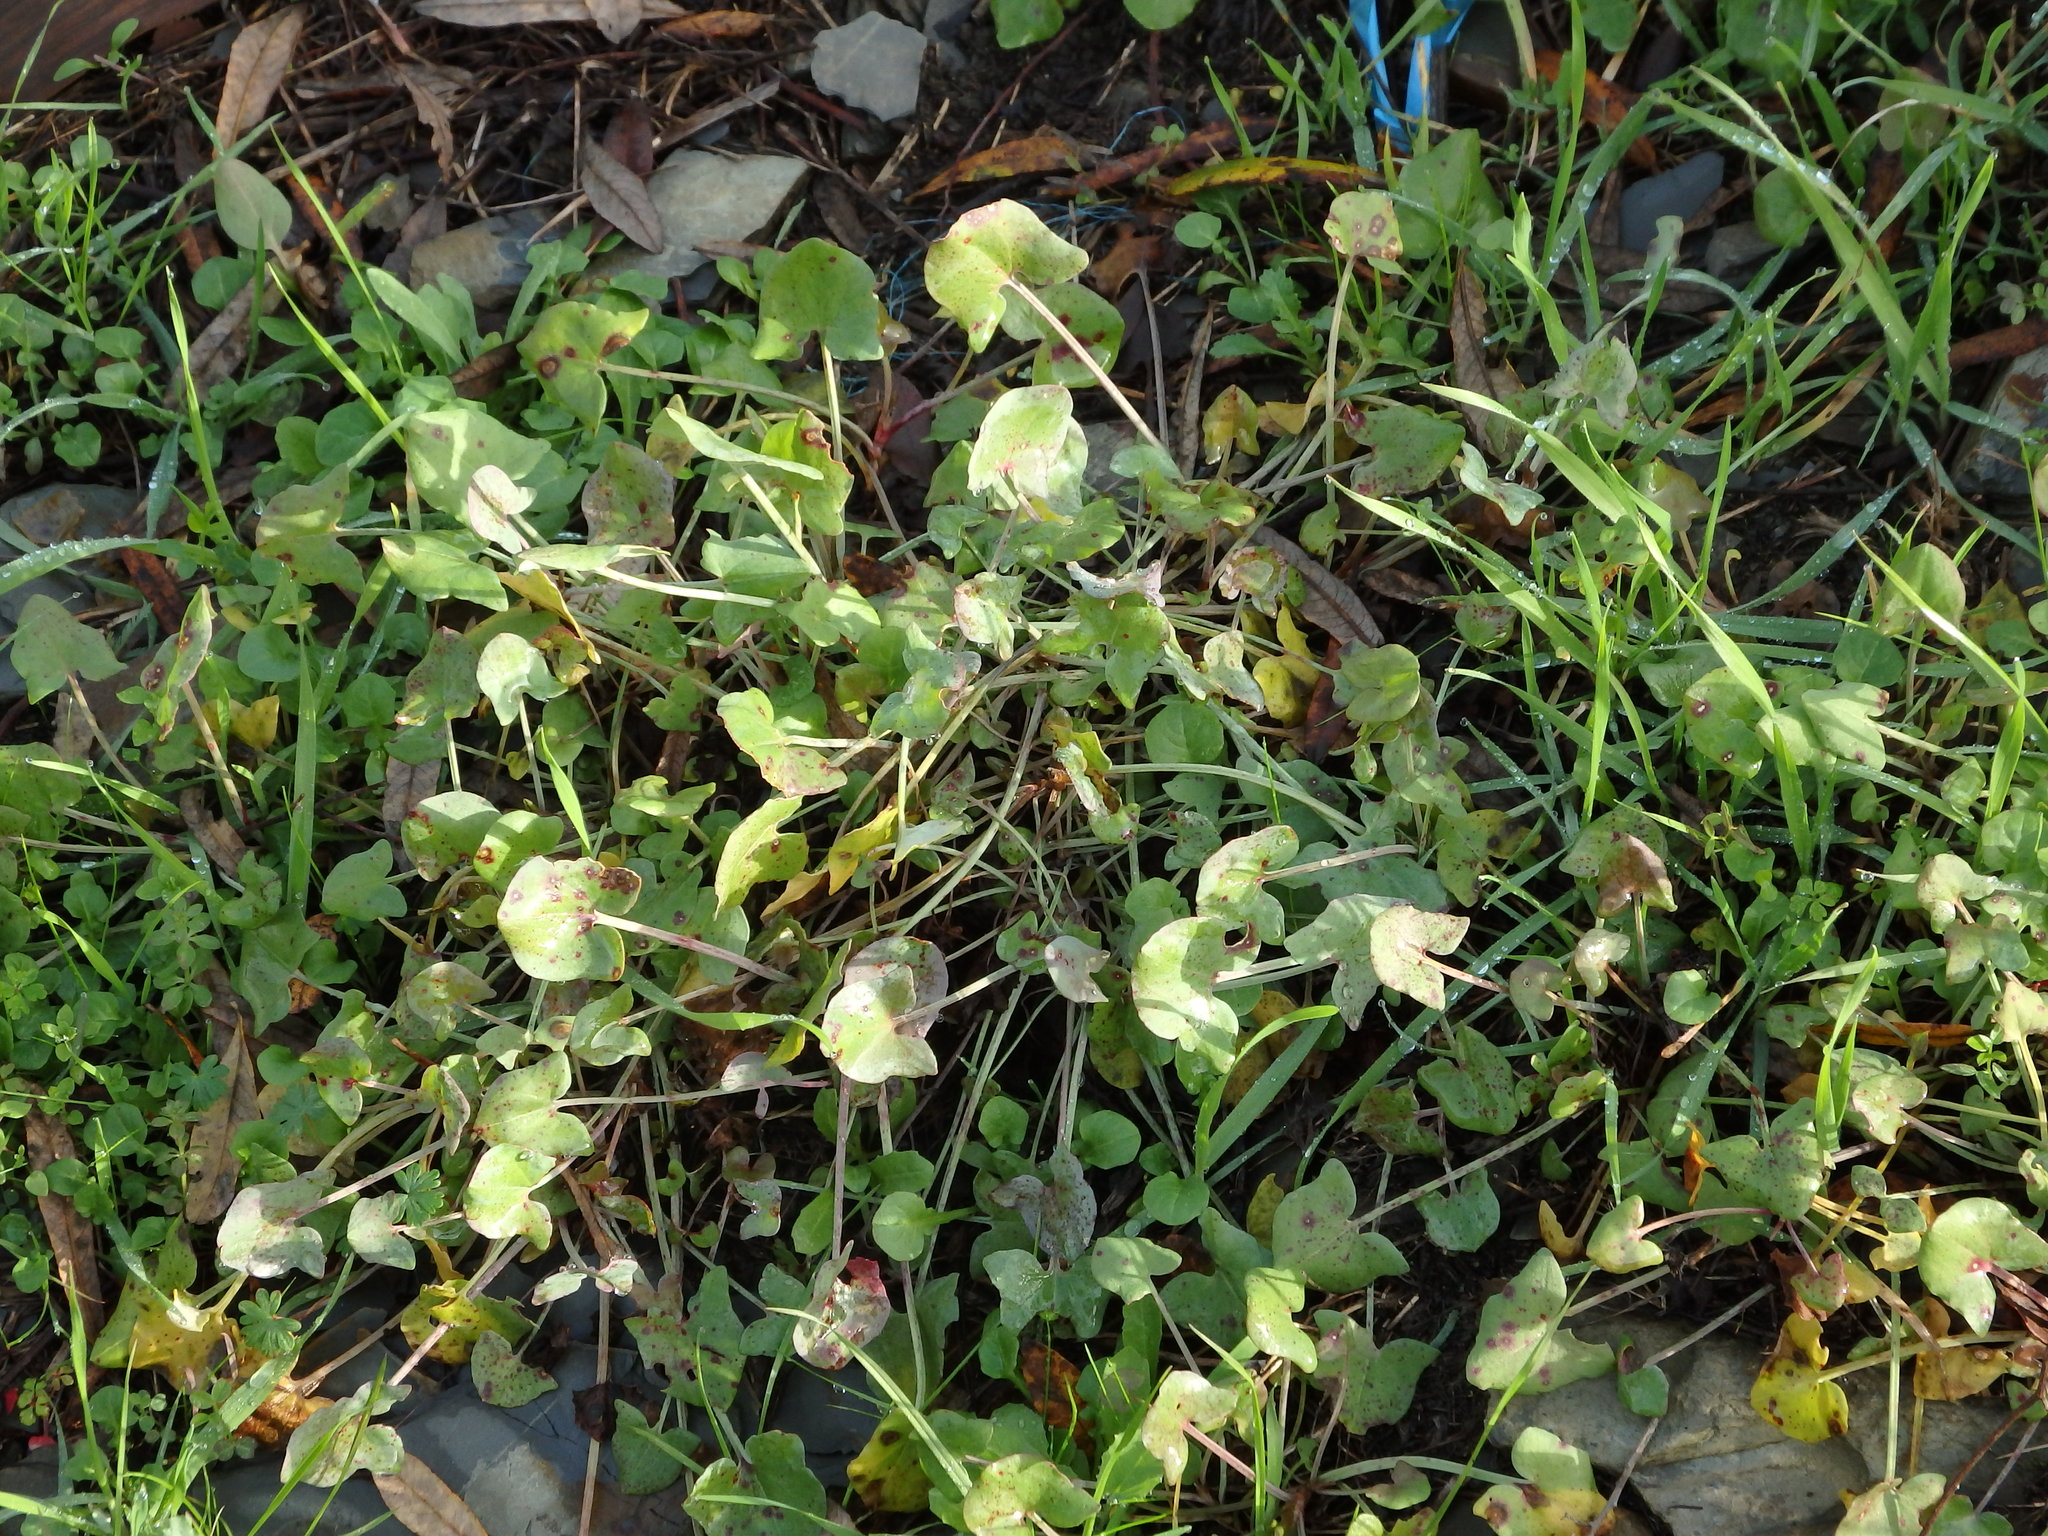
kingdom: Plantae
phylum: Tracheophyta
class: Magnoliopsida
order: Caryophyllales
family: Polygonaceae
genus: Rumex
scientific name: Rumex induratus
